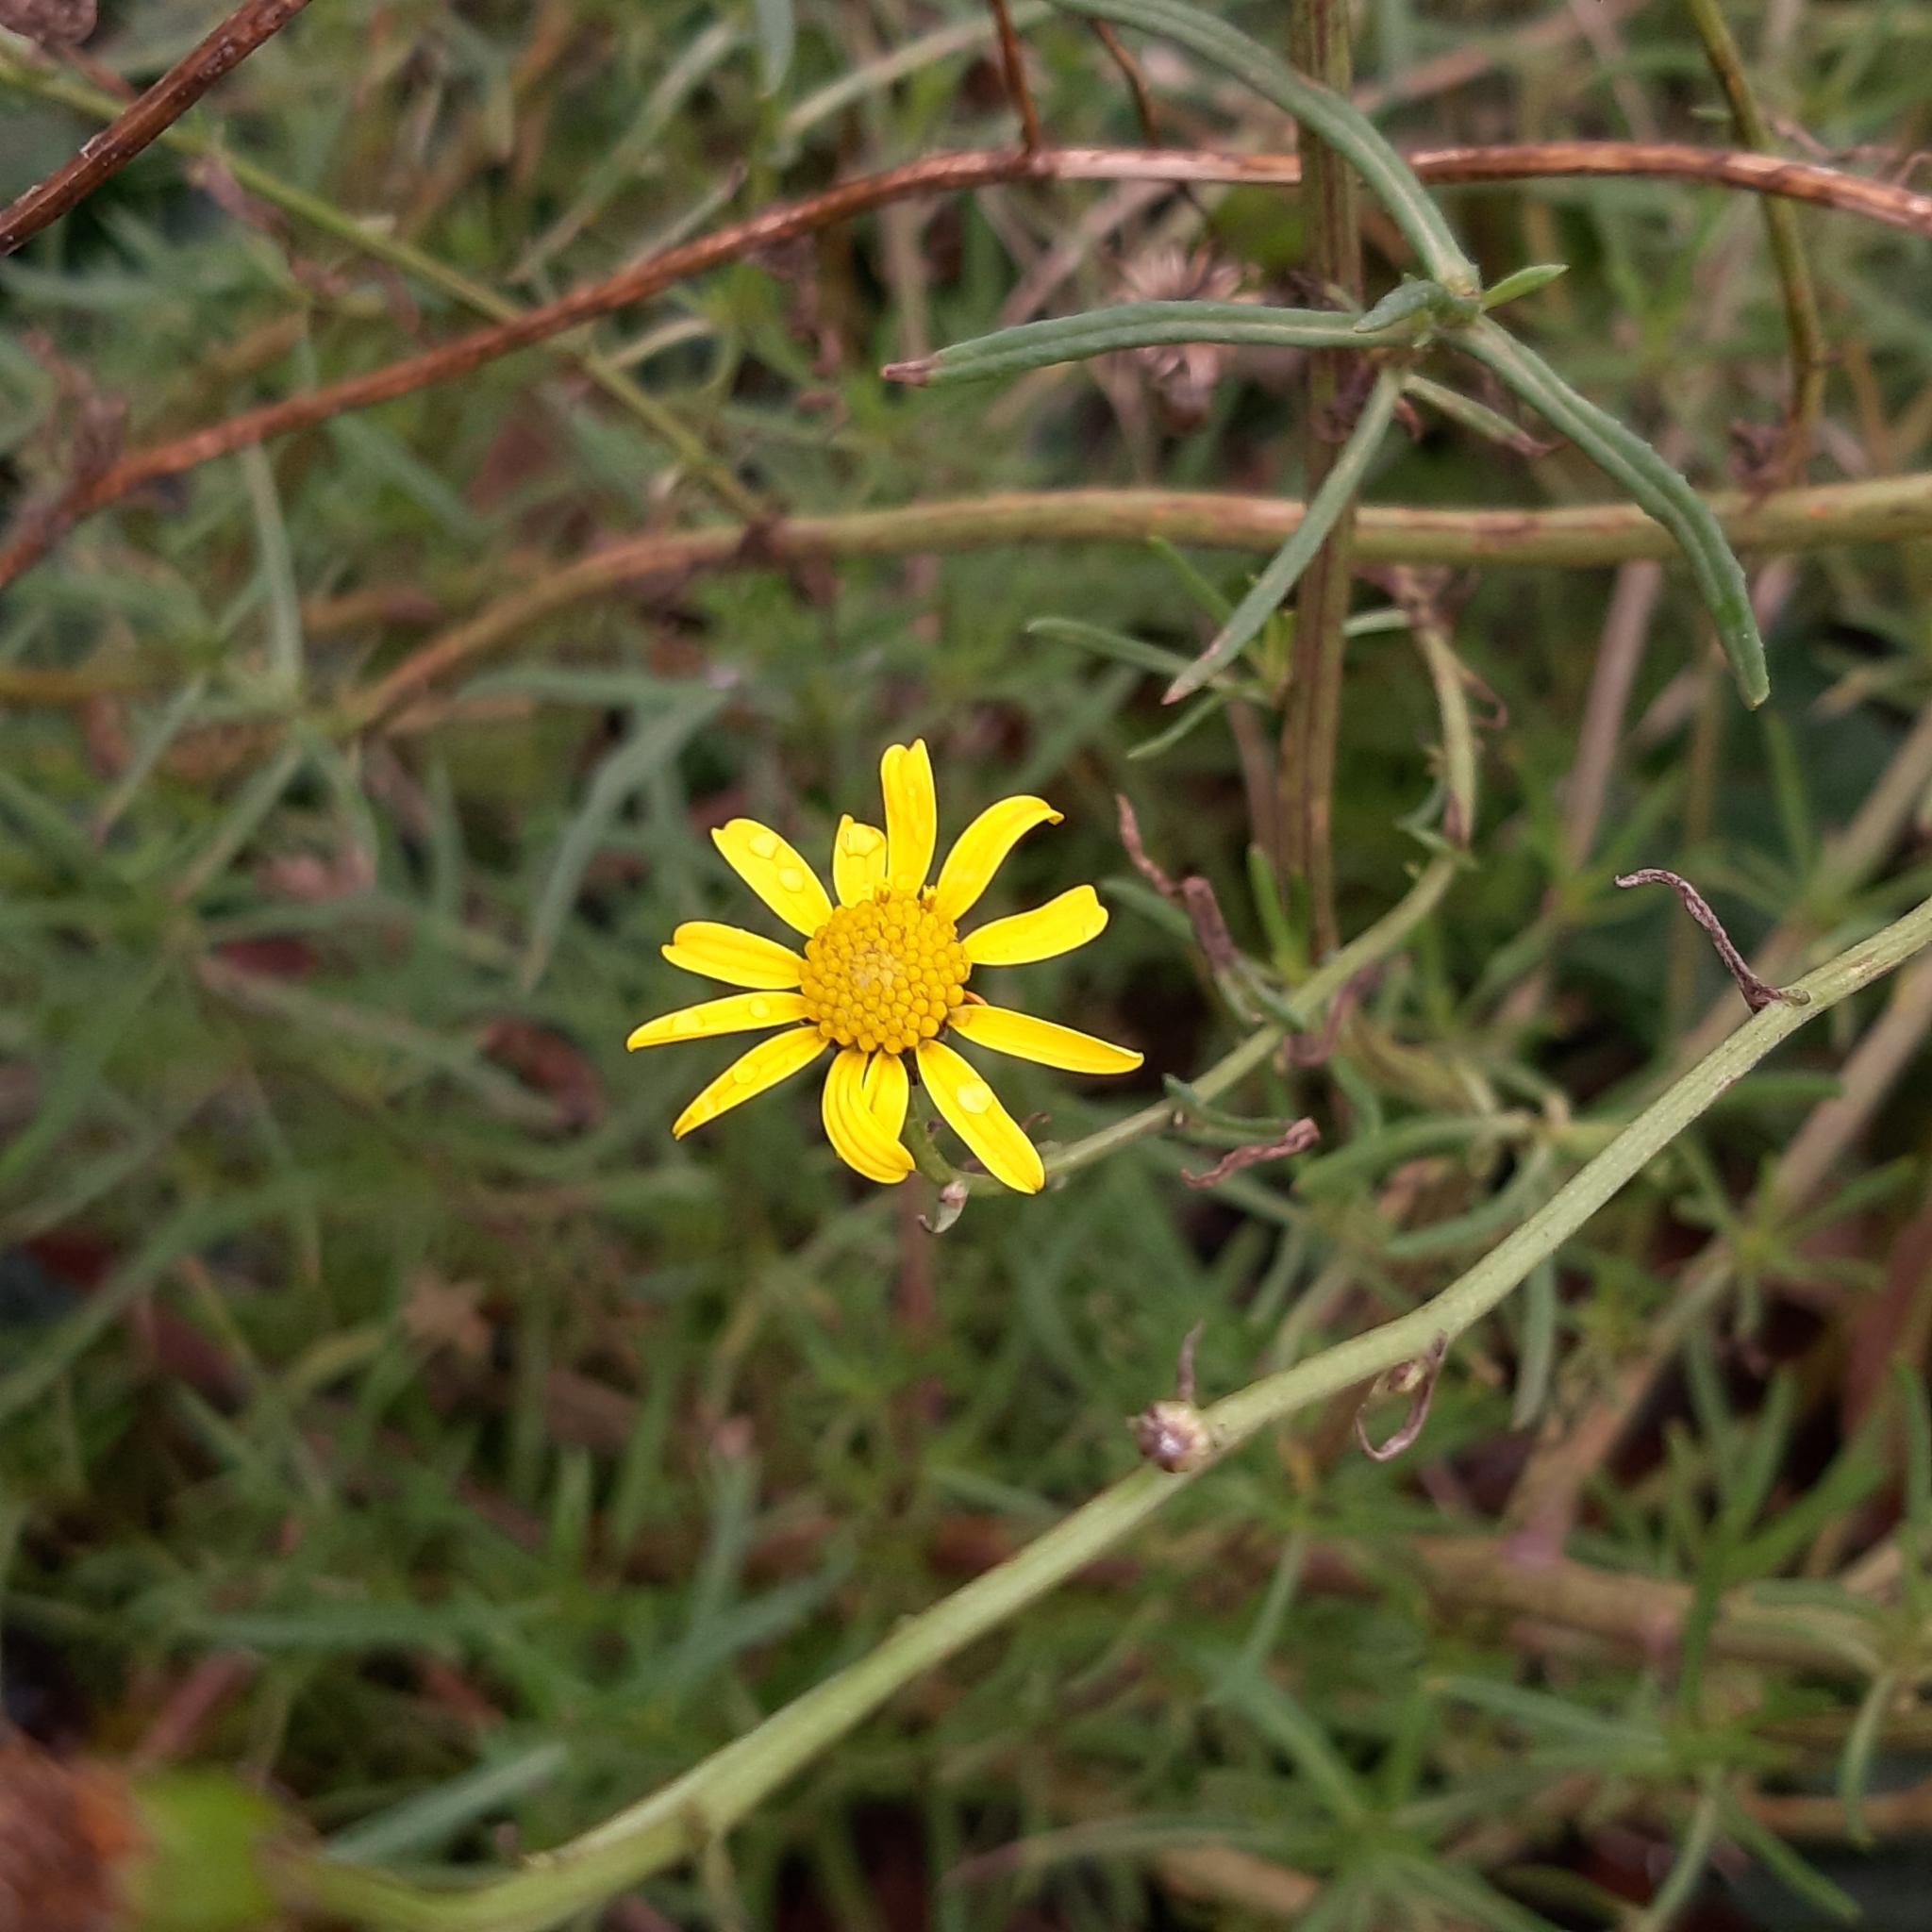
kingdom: Plantae
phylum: Tracheophyta
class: Magnoliopsida
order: Asterales
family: Asteraceae
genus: Senecio
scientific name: Senecio inaequidens
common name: Narrow-leaved ragwort
